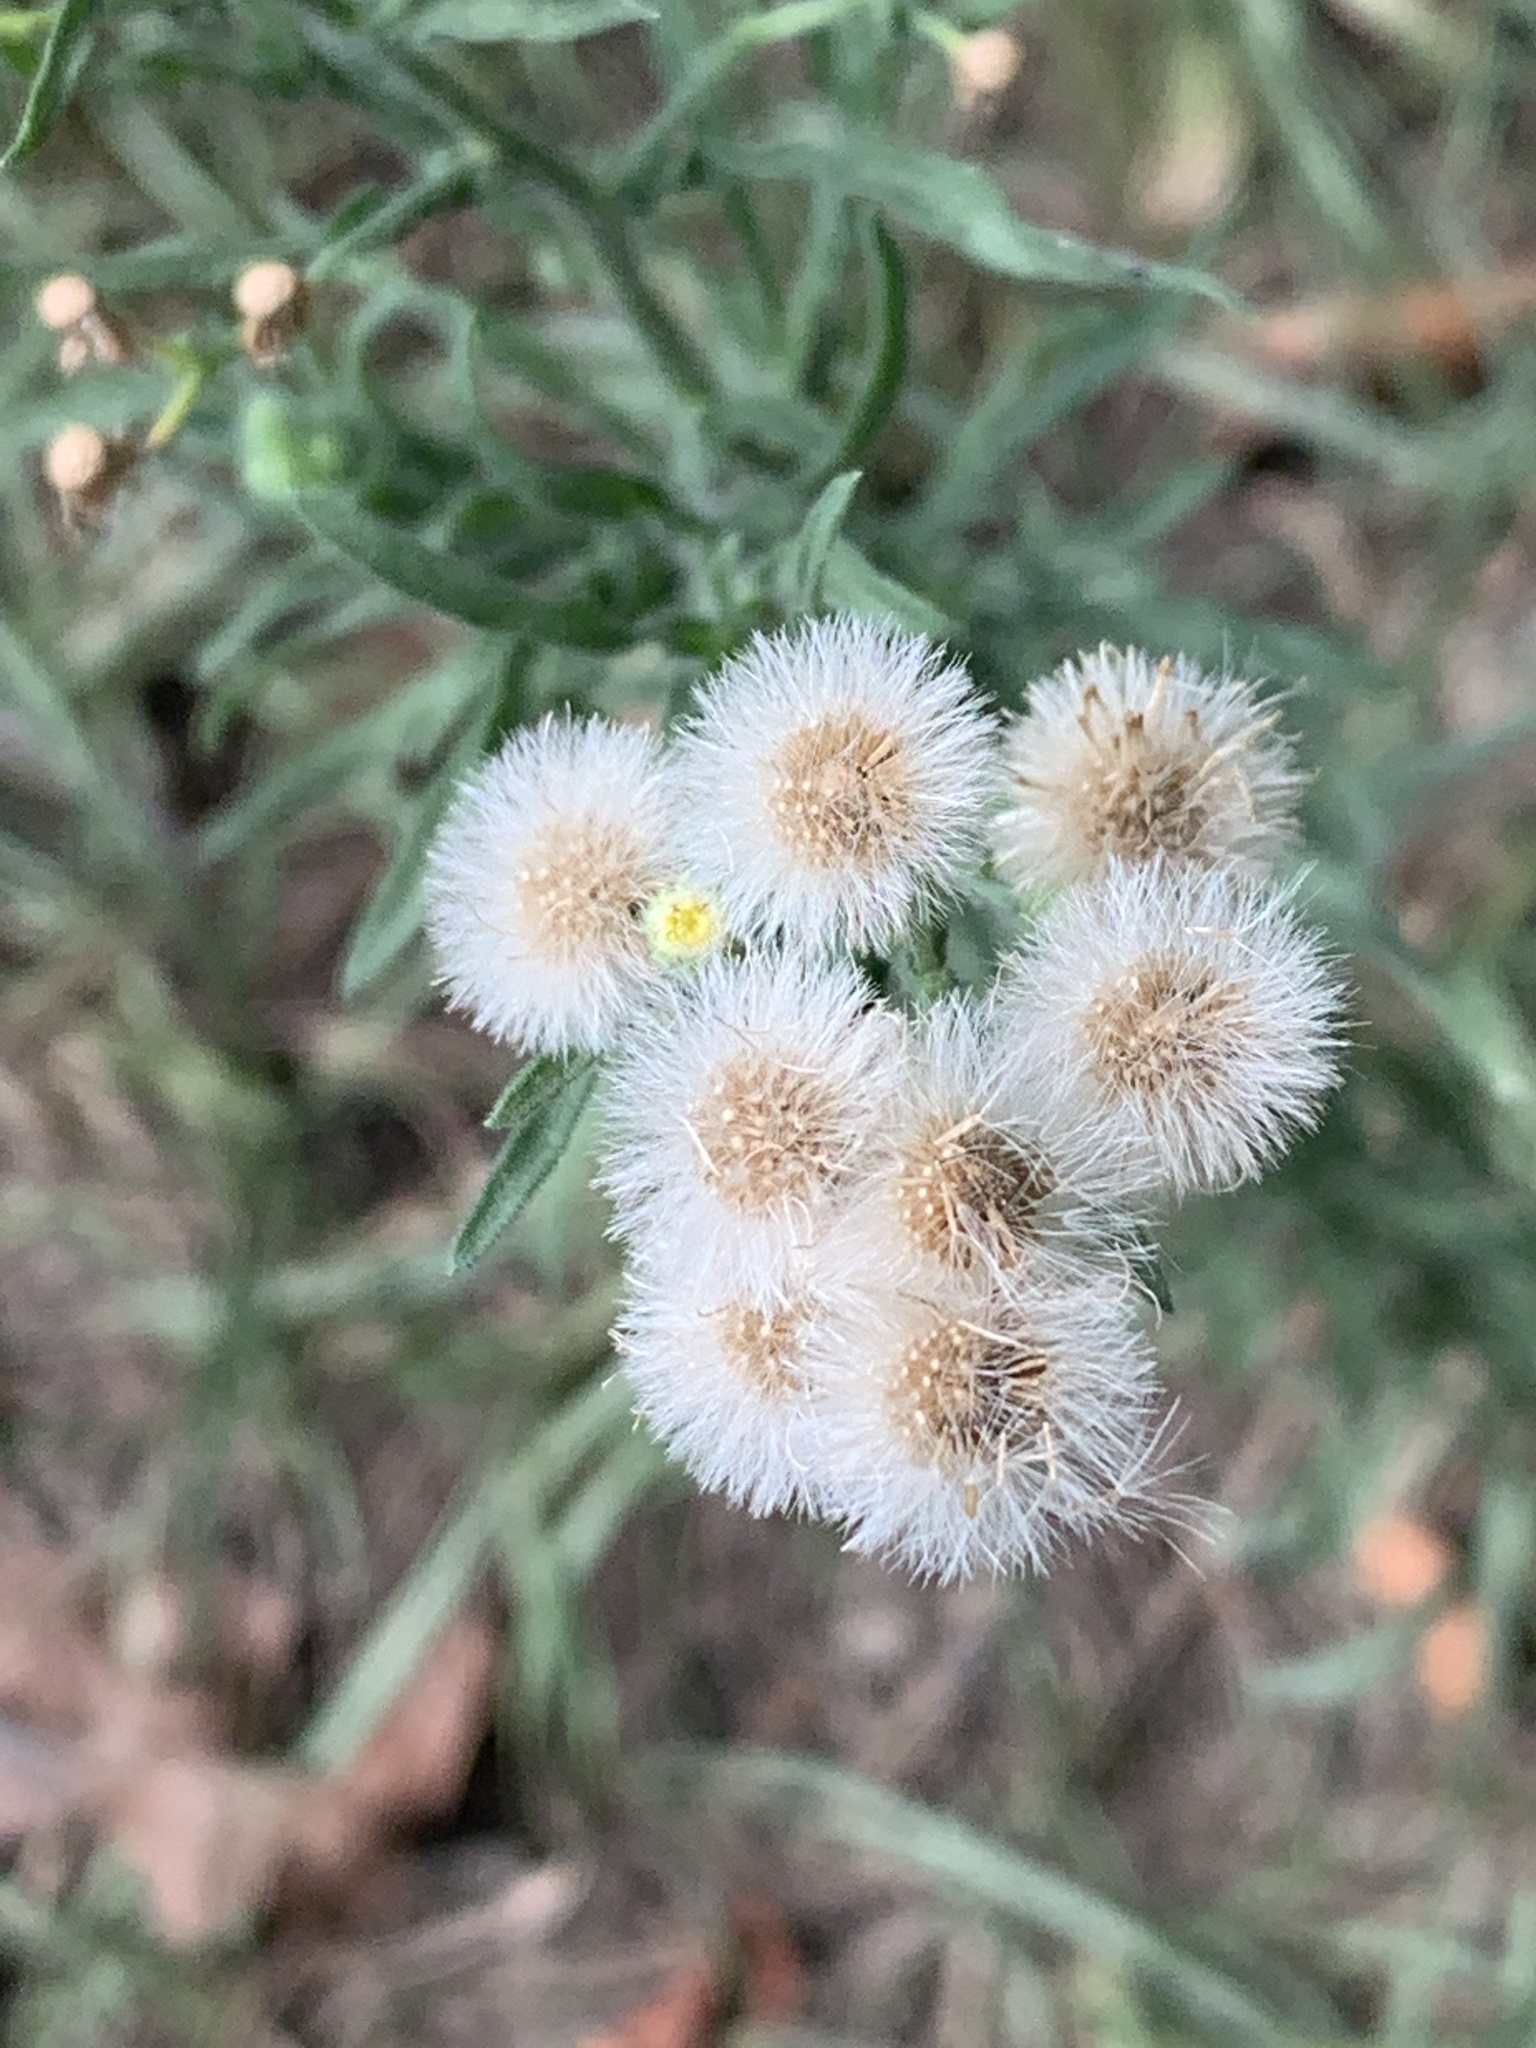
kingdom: Plantae
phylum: Tracheophyta
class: Magnoliopsida
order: Asterales
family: Asteraceae
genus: Erigeron
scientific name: Erigeron bonariensis
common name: Argentine fleabane
